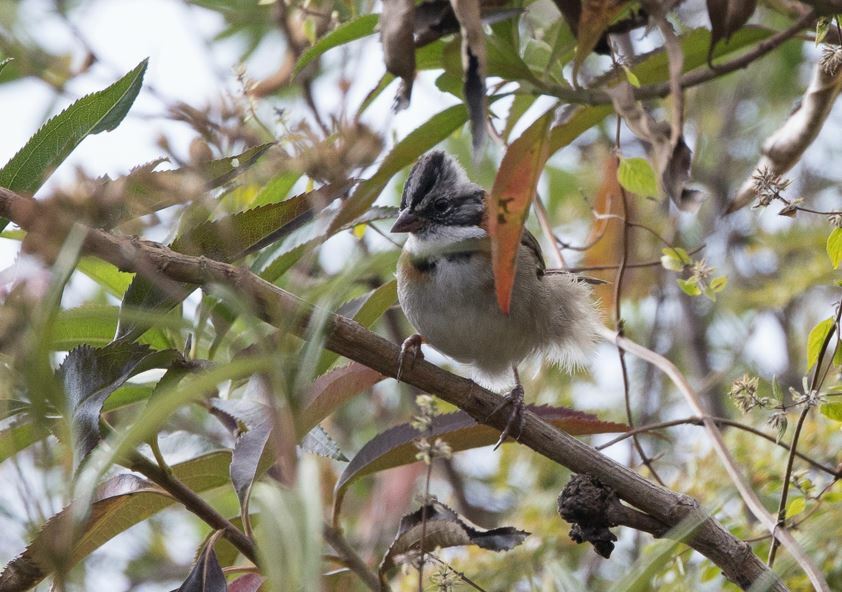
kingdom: Animalia
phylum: Chordata
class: Aves
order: Passeriformes
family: Passerellidae
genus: Zonotrichia
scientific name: Zonotrichia capensis
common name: Rufous-collared sparrow
